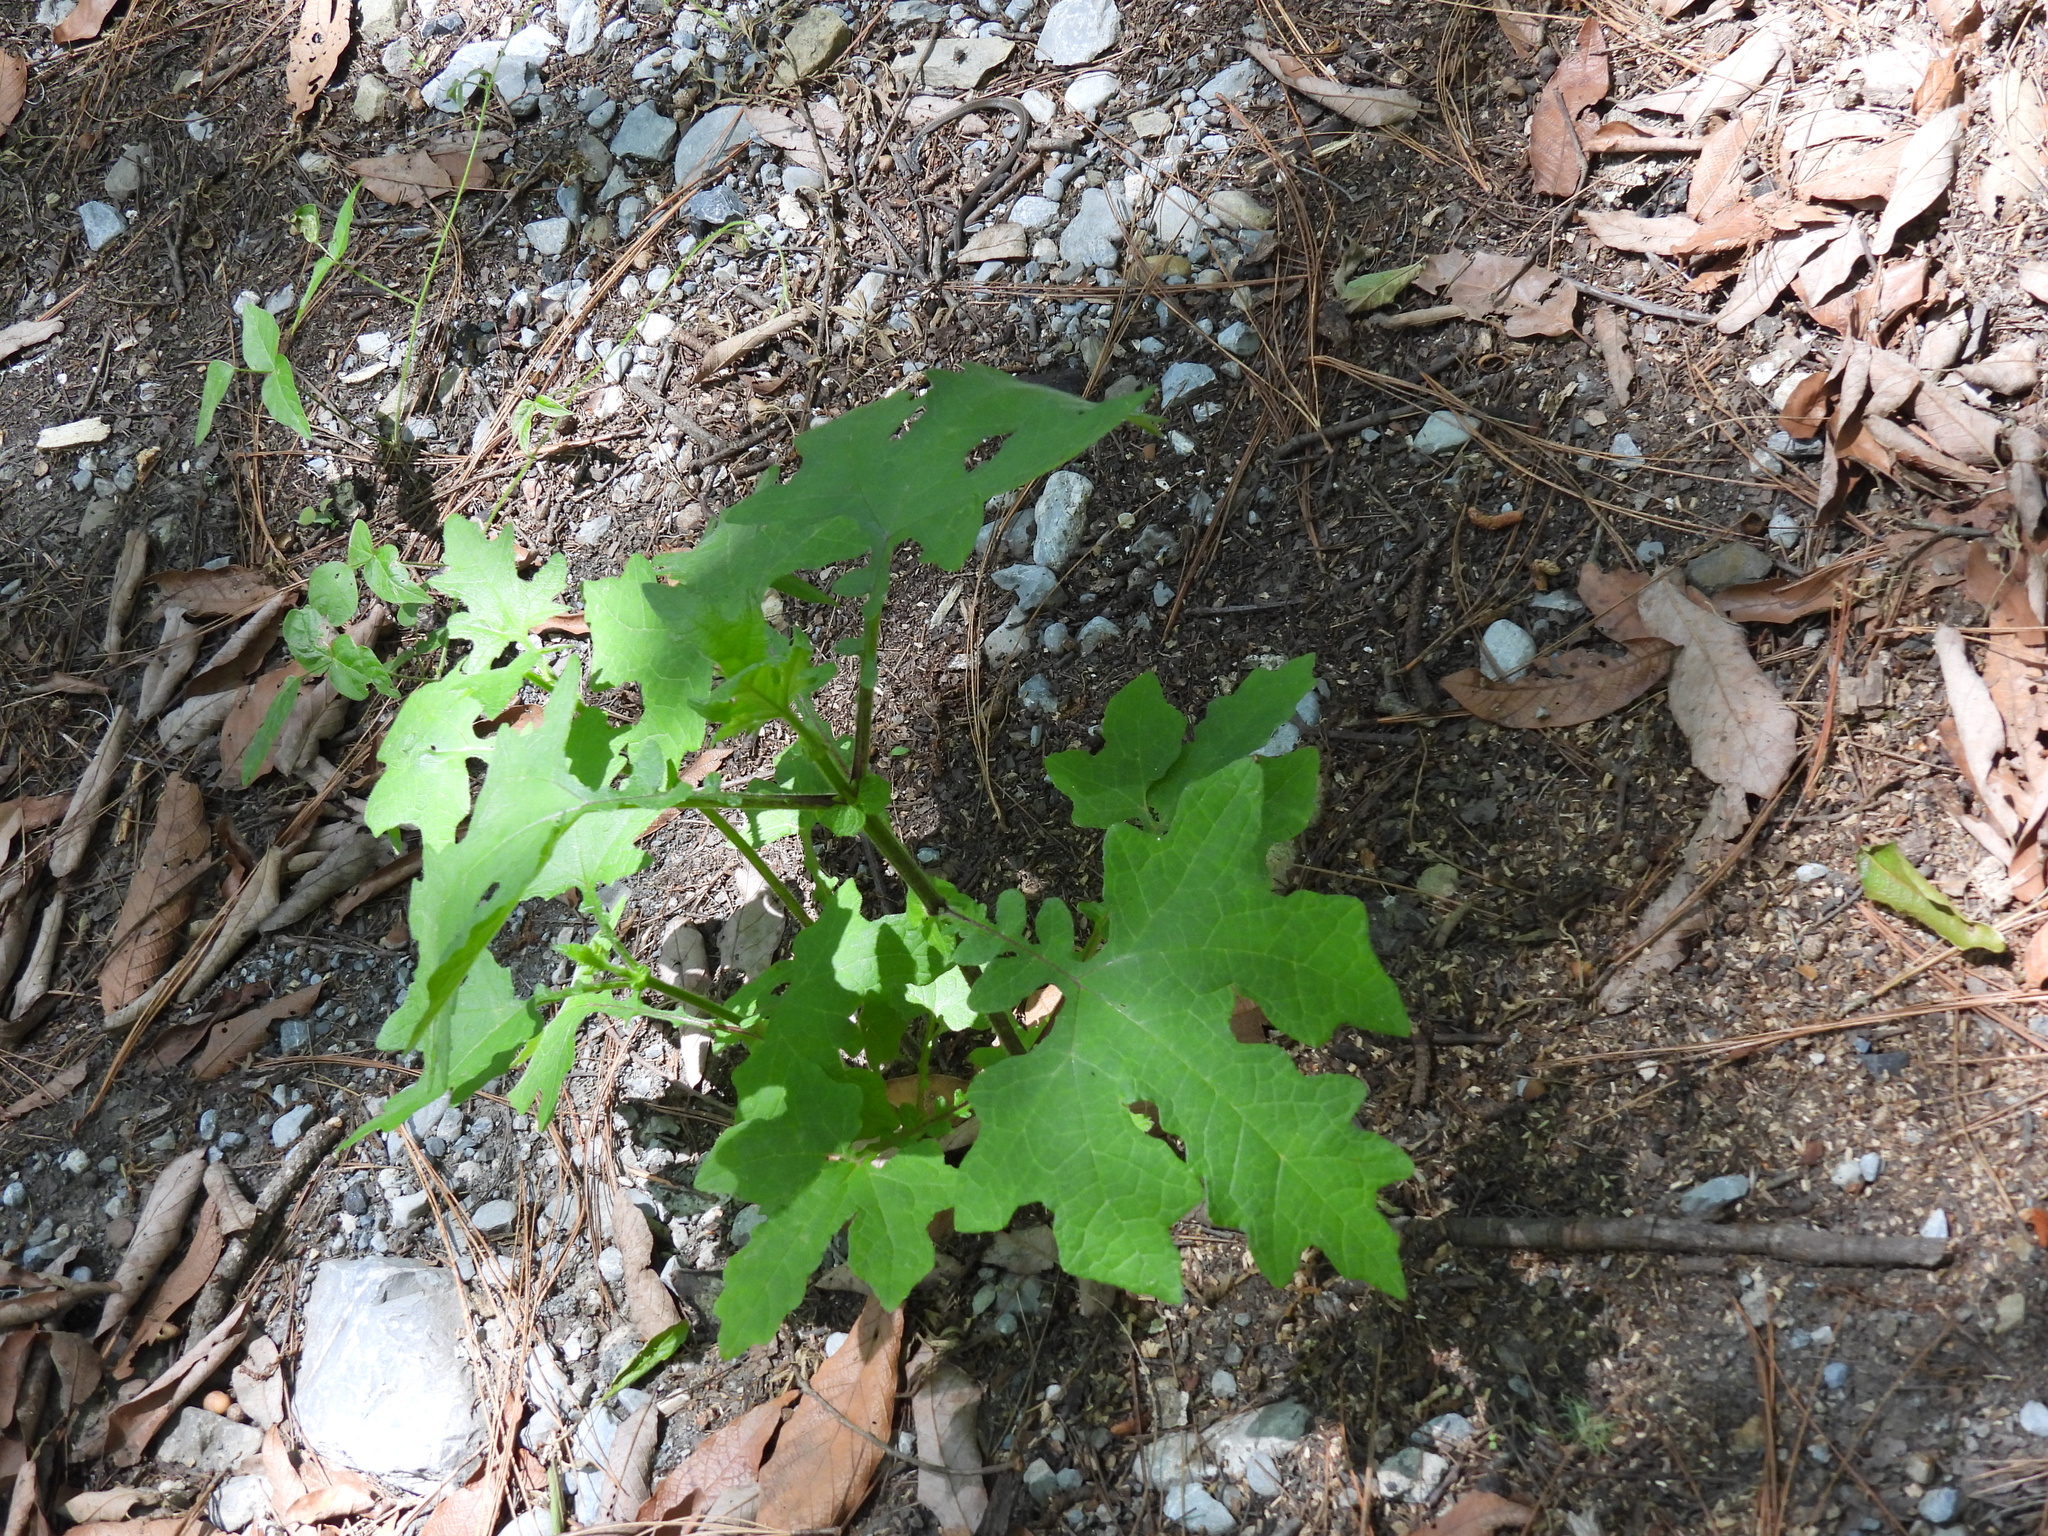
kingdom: Plantae
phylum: Tracheophyta
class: Magnoliopsida
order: Asterales
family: Asteraceae
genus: Smallanthus
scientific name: Smallanthus uvedalia
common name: Bear's-foot
